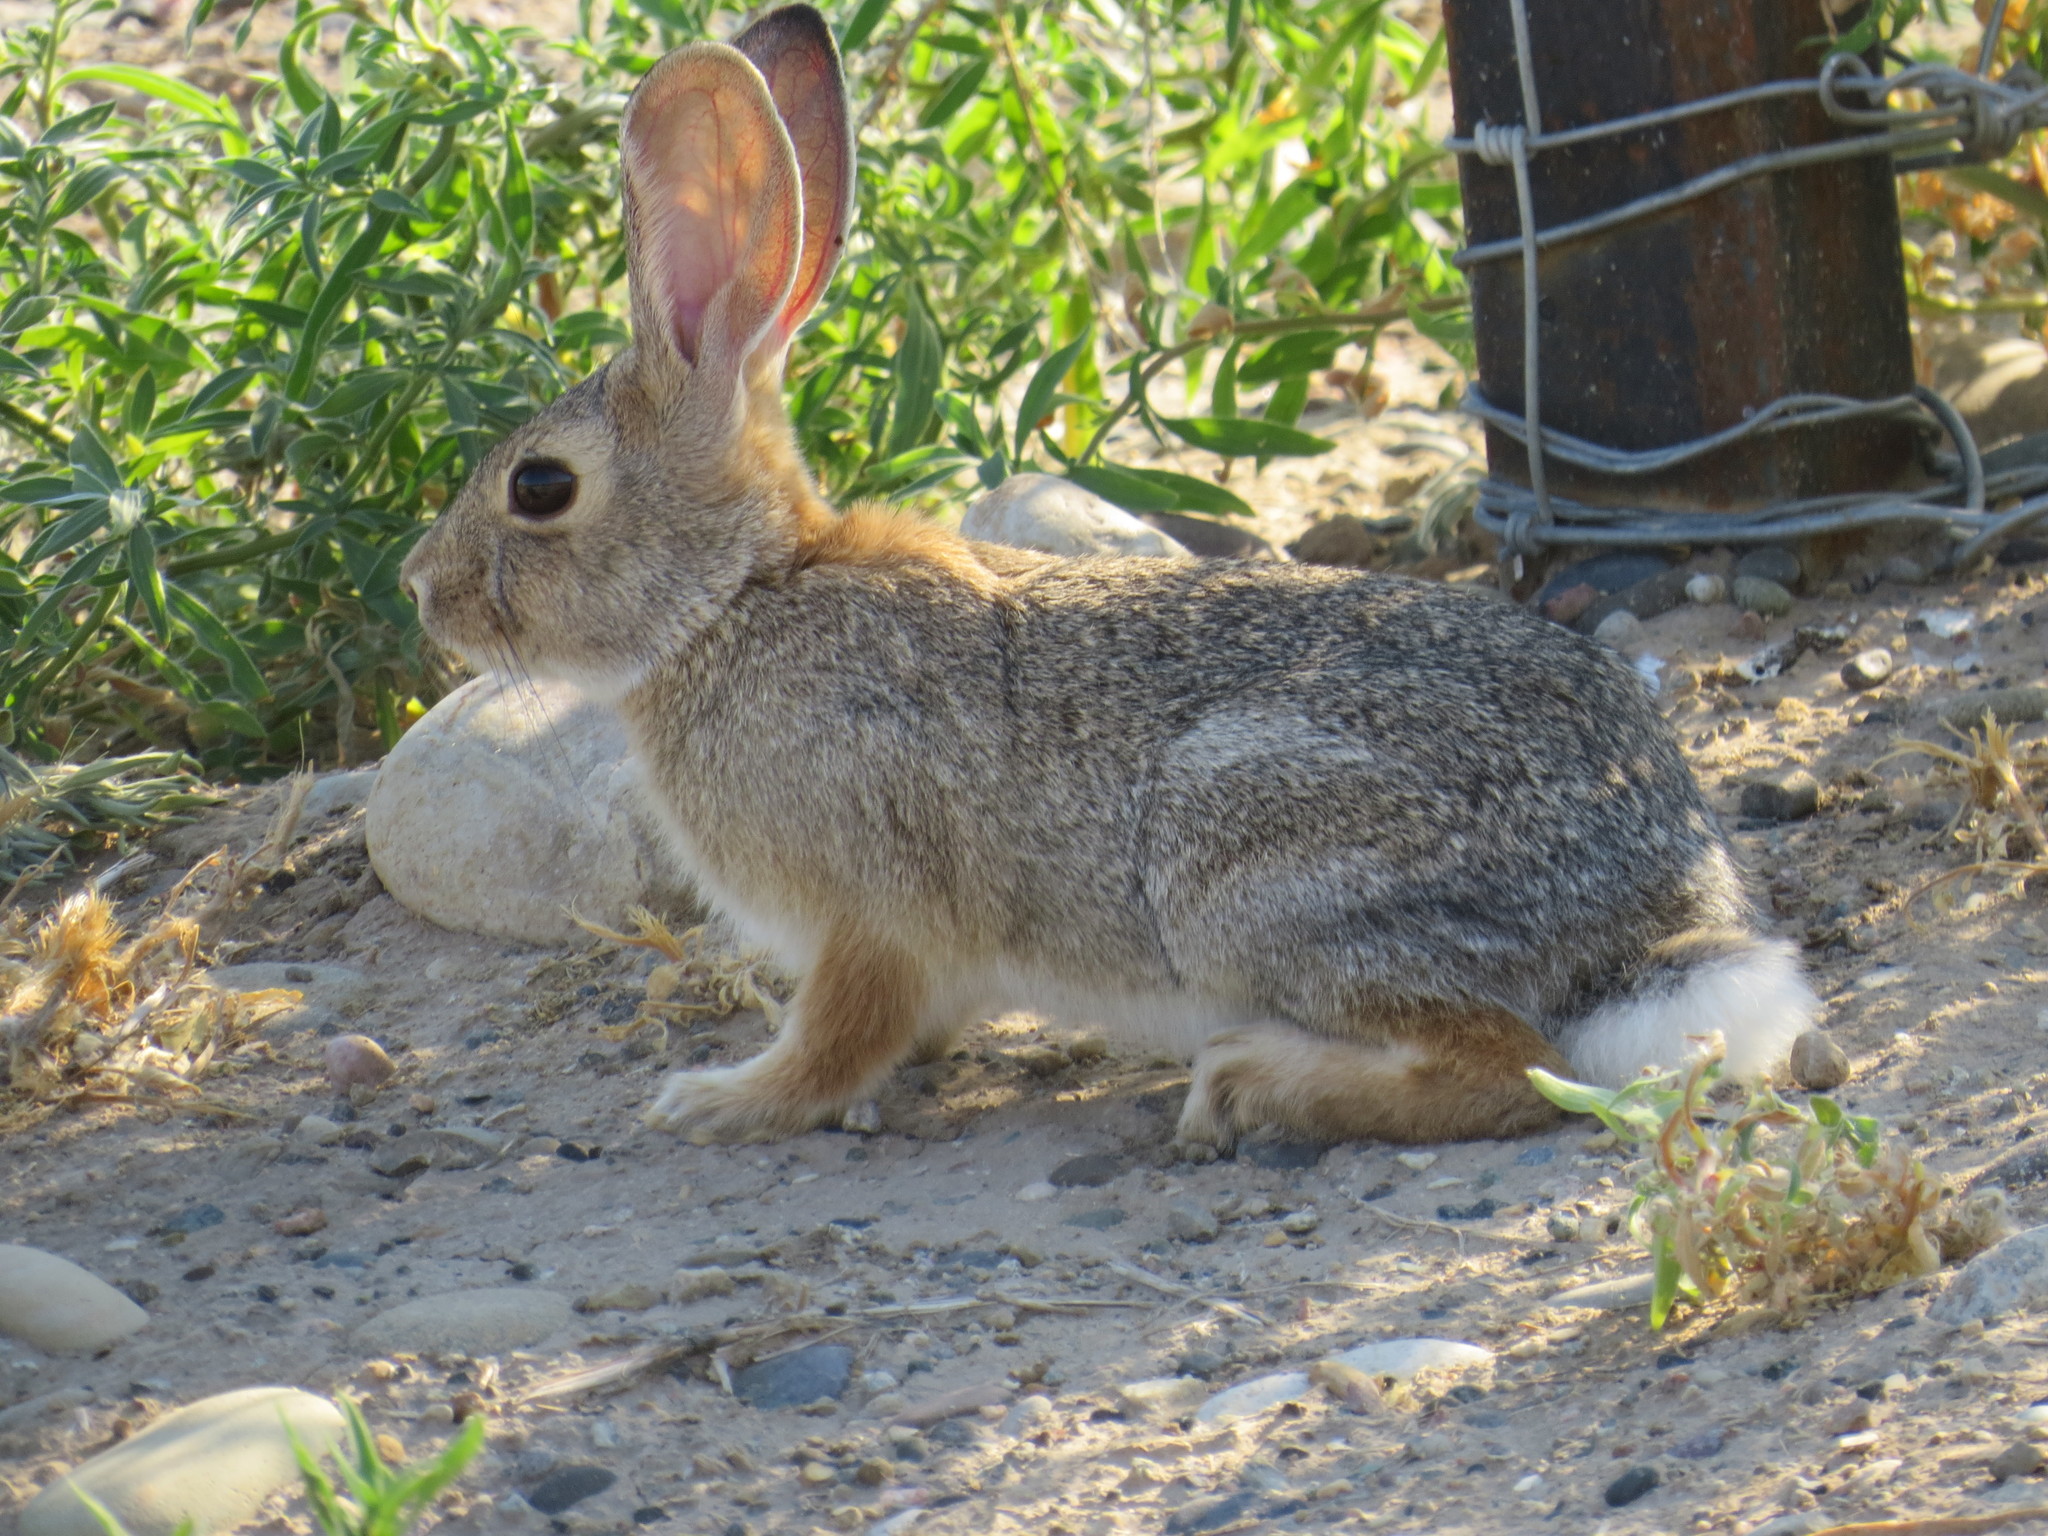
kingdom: Animalia
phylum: Chordata
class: Mammalia
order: Lagomorpha
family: Leporidae
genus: Sylvilagus
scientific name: Sylvilagus audubonii
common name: Desert cottontail
